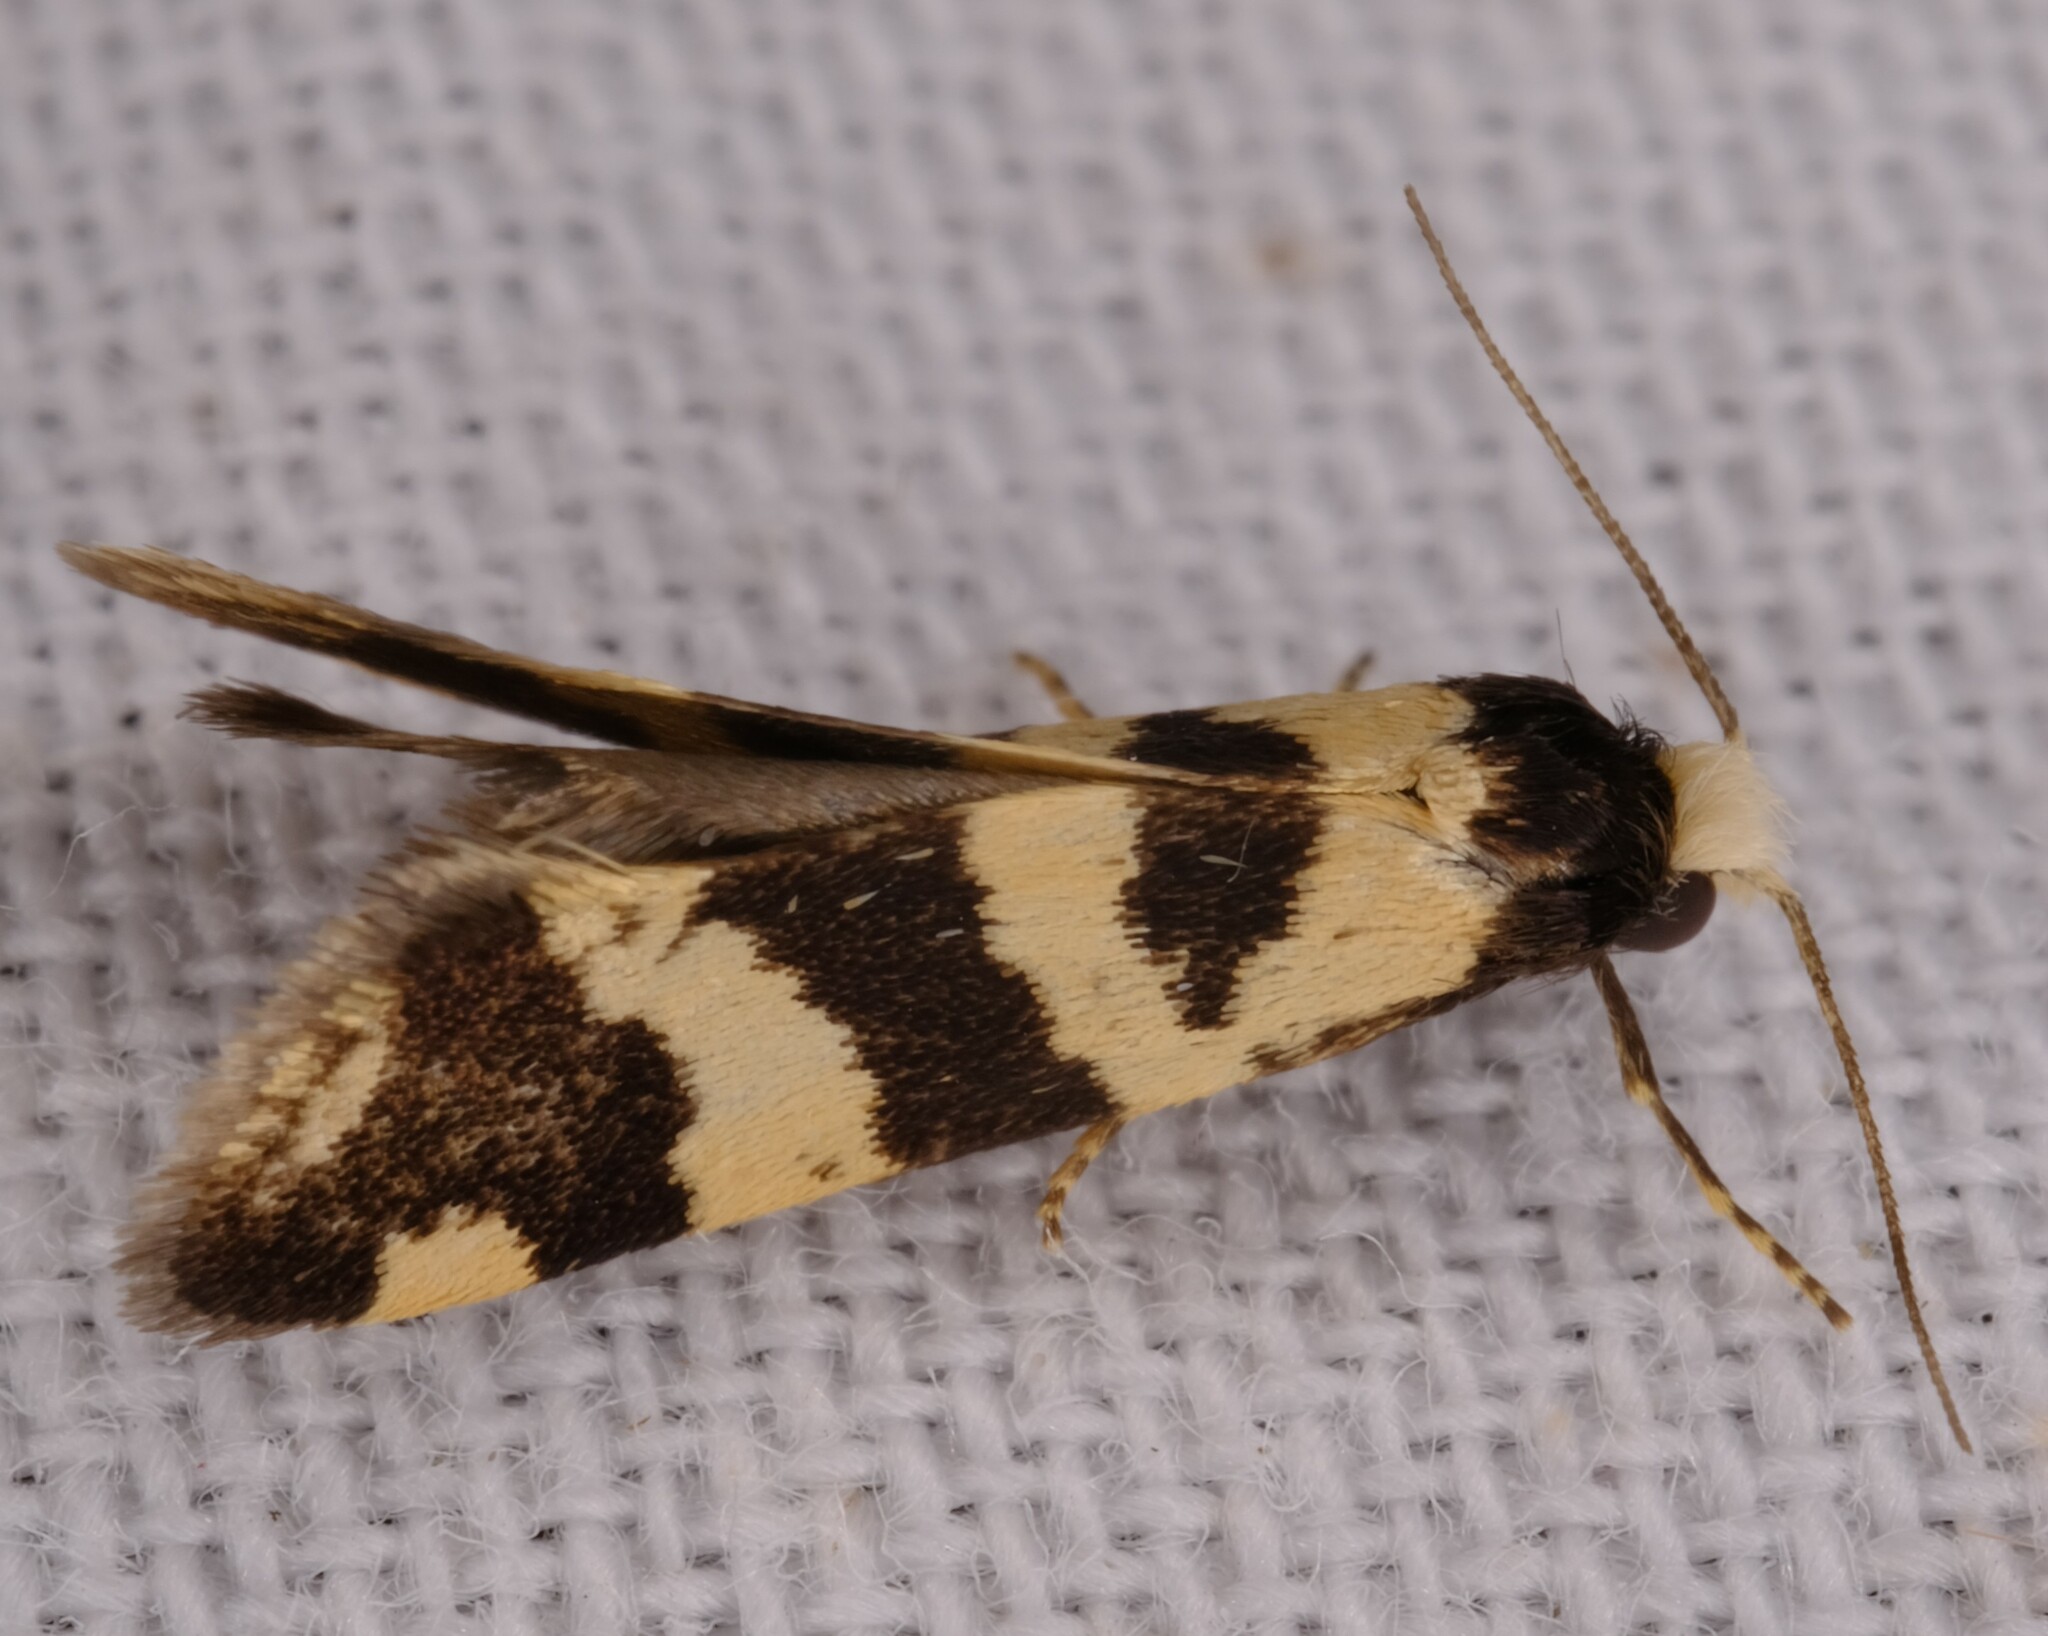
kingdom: Animalia
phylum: Arthropoda
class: Insecta
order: Lepidoptera
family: Psychidae
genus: Lepidoscia
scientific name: Lepidoscia characota
